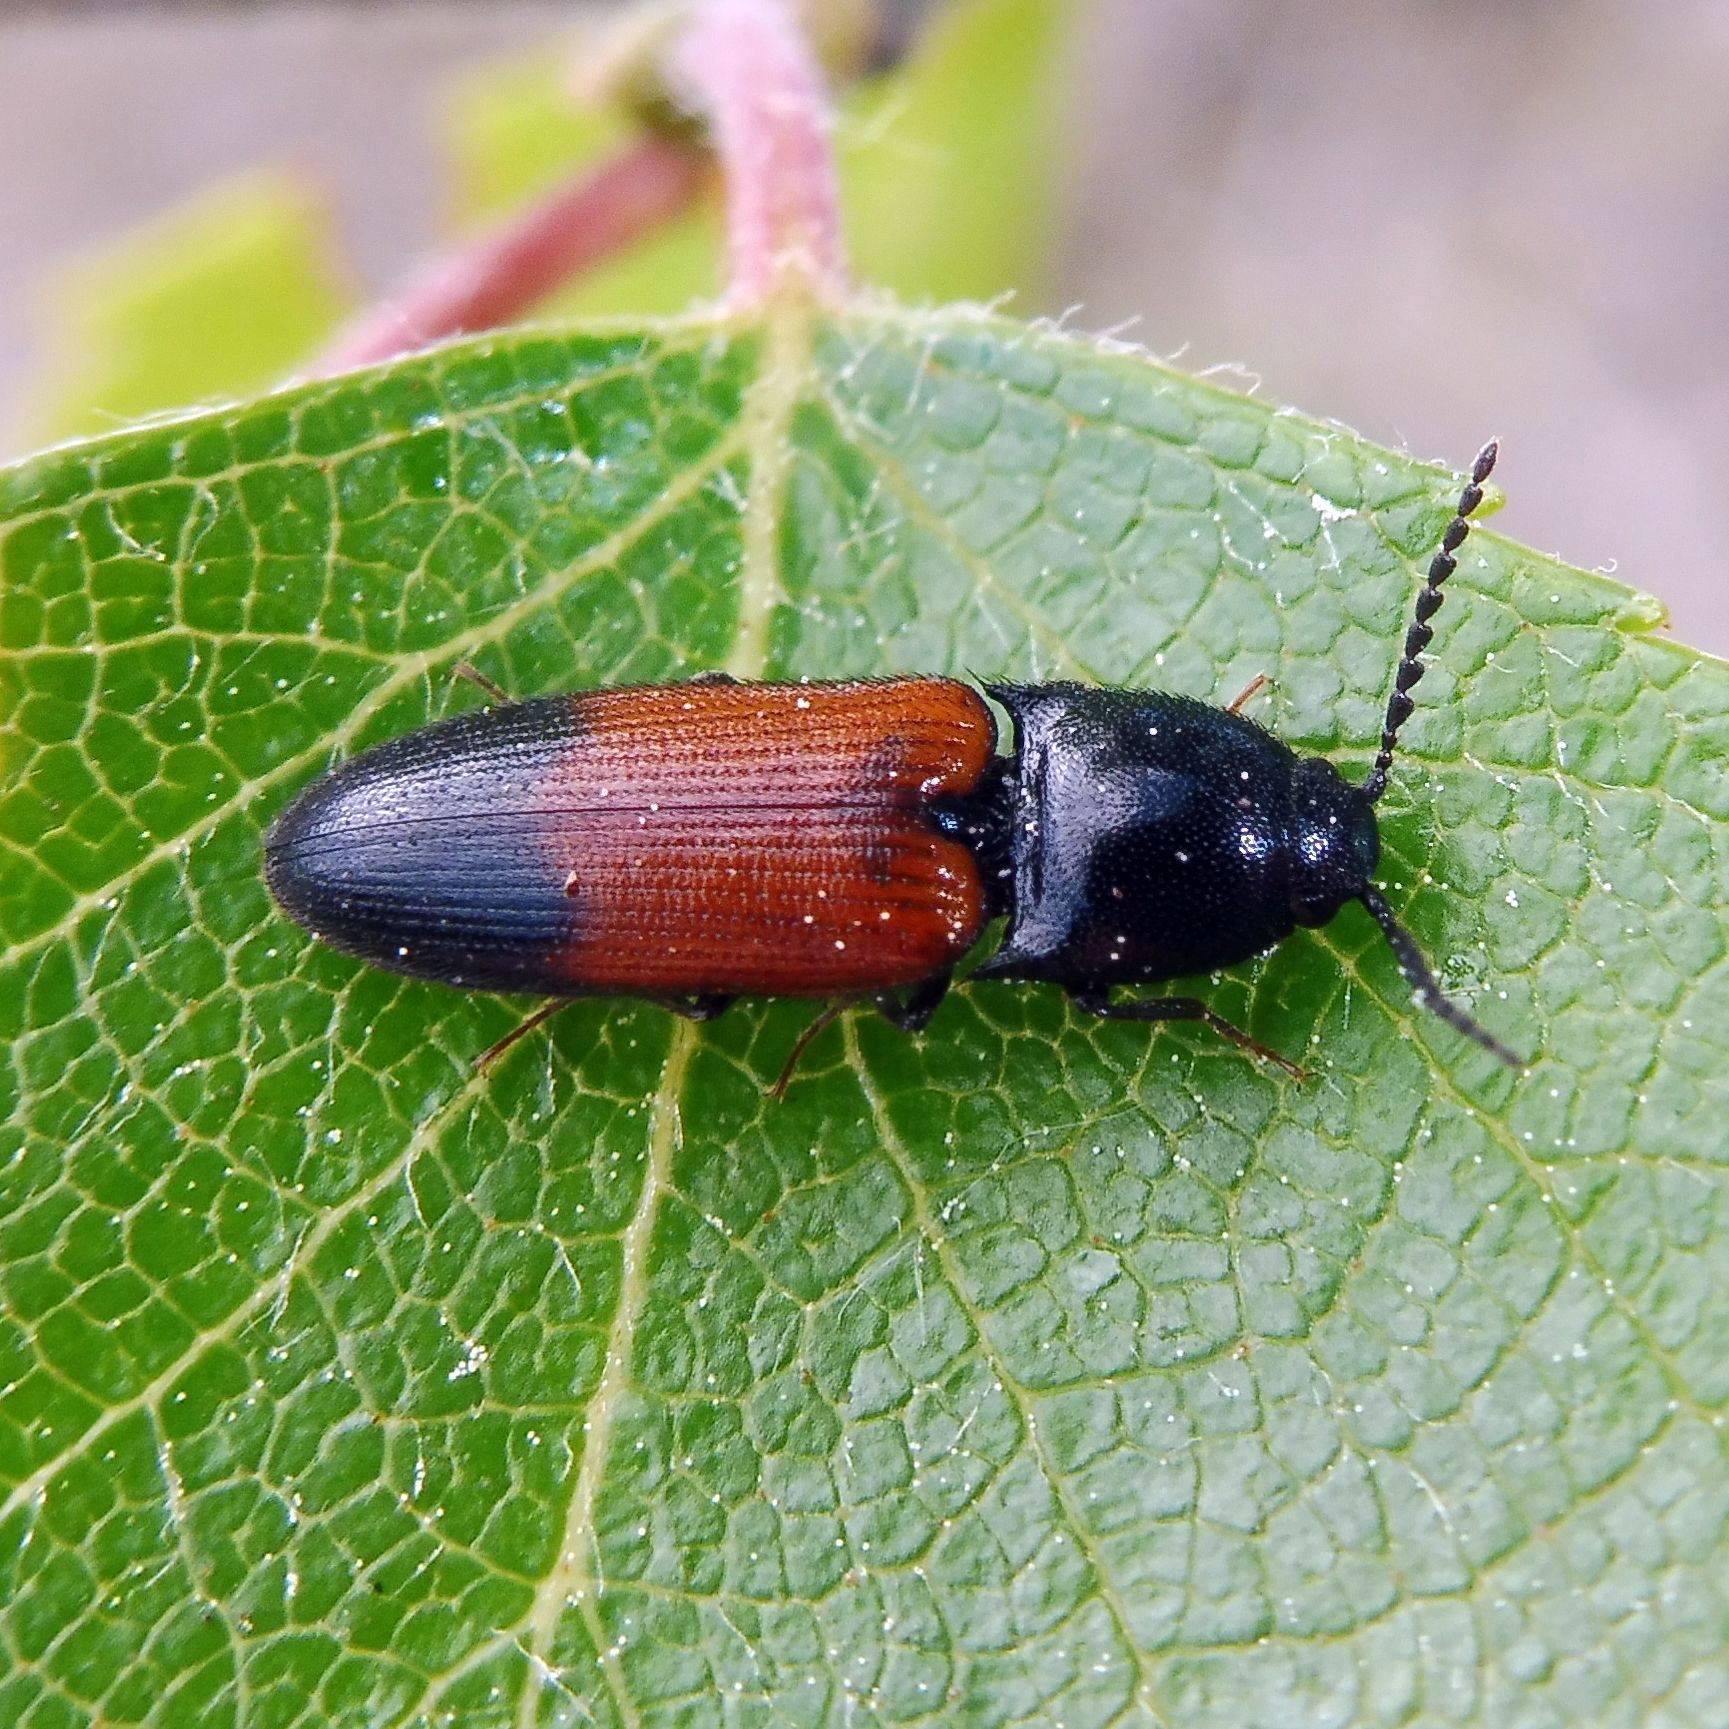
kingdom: Animalia
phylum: Arthropoda
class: Insecta
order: Coleoptera
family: Elateridae
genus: Ampedus
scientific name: Ampedus balteatus
